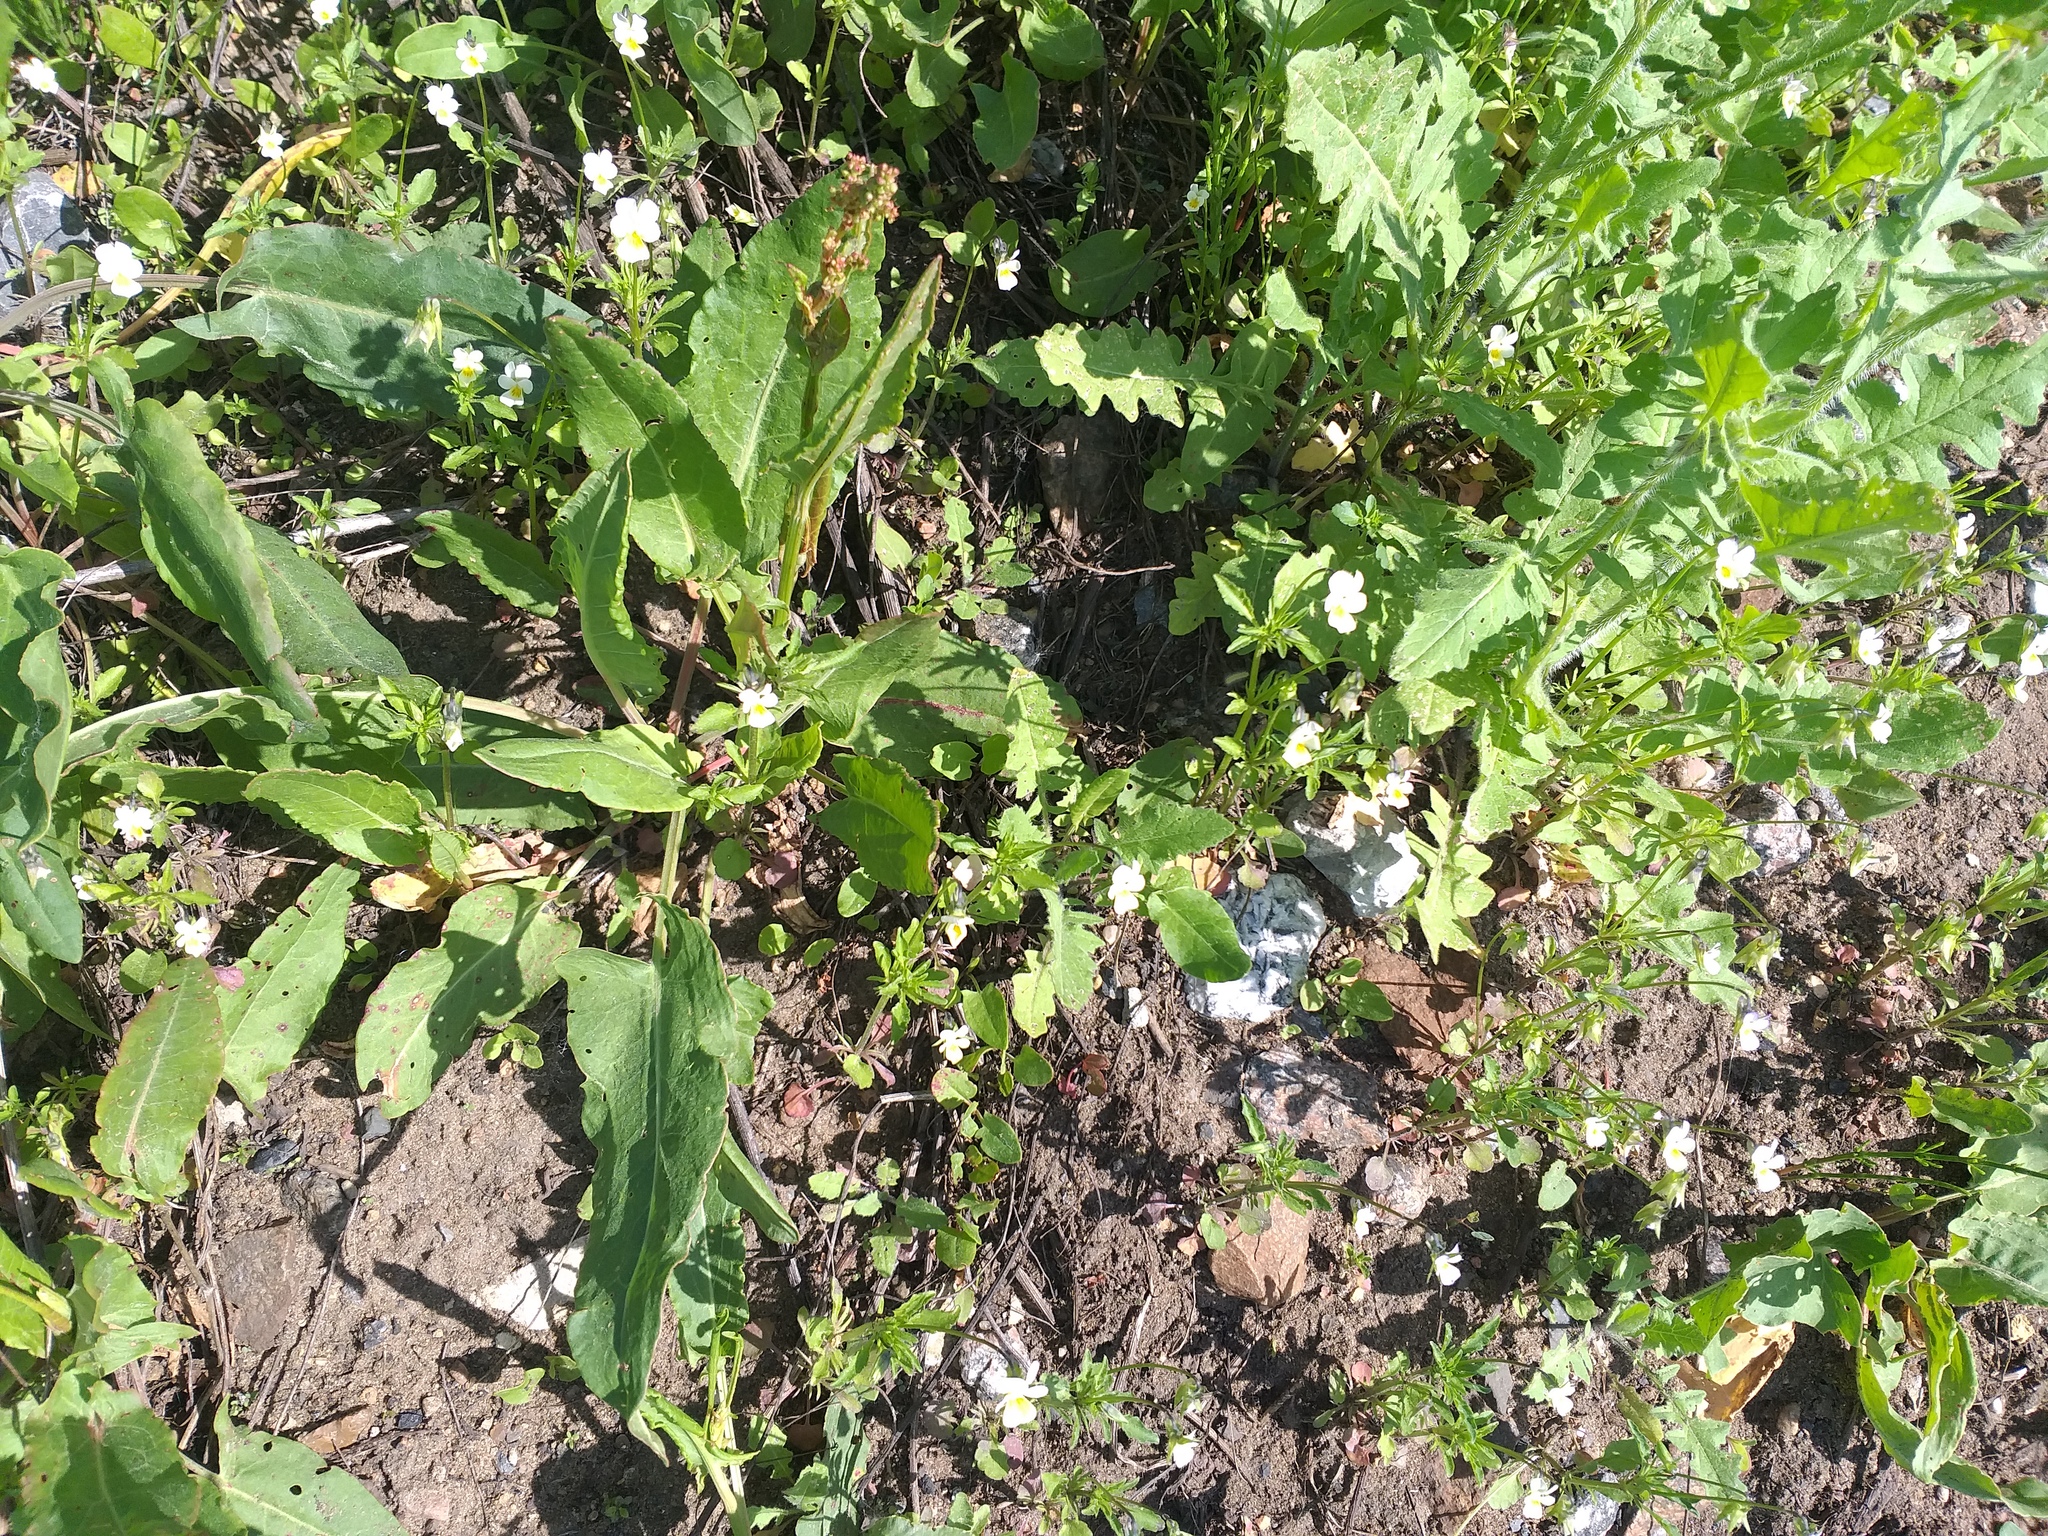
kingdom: Plantae
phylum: Tracheophyta
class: Magnoliopsida
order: Malpighiales
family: Violaceae
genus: Viola
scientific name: Viola arvensis
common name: Field pansy
